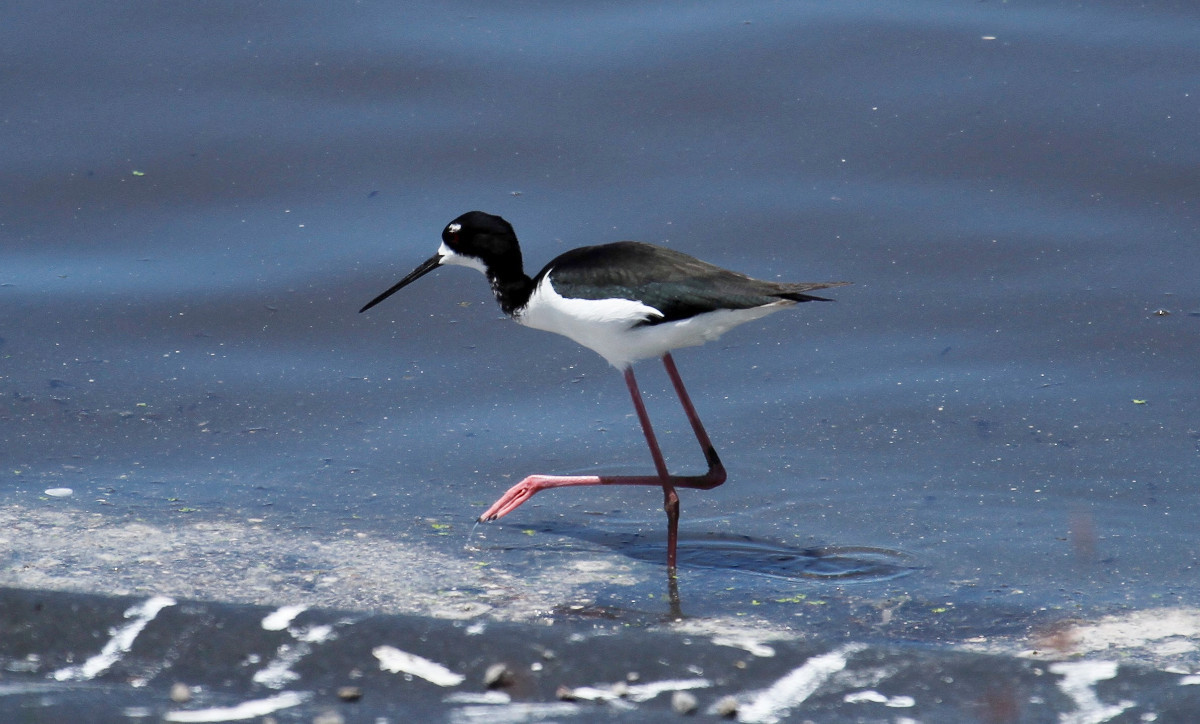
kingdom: Animalia
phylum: Chordata
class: Aves
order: Charadriiformes
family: Recurvirostridae
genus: Himantopus
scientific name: Himantopus mexicanus
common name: Black-necked stilt
